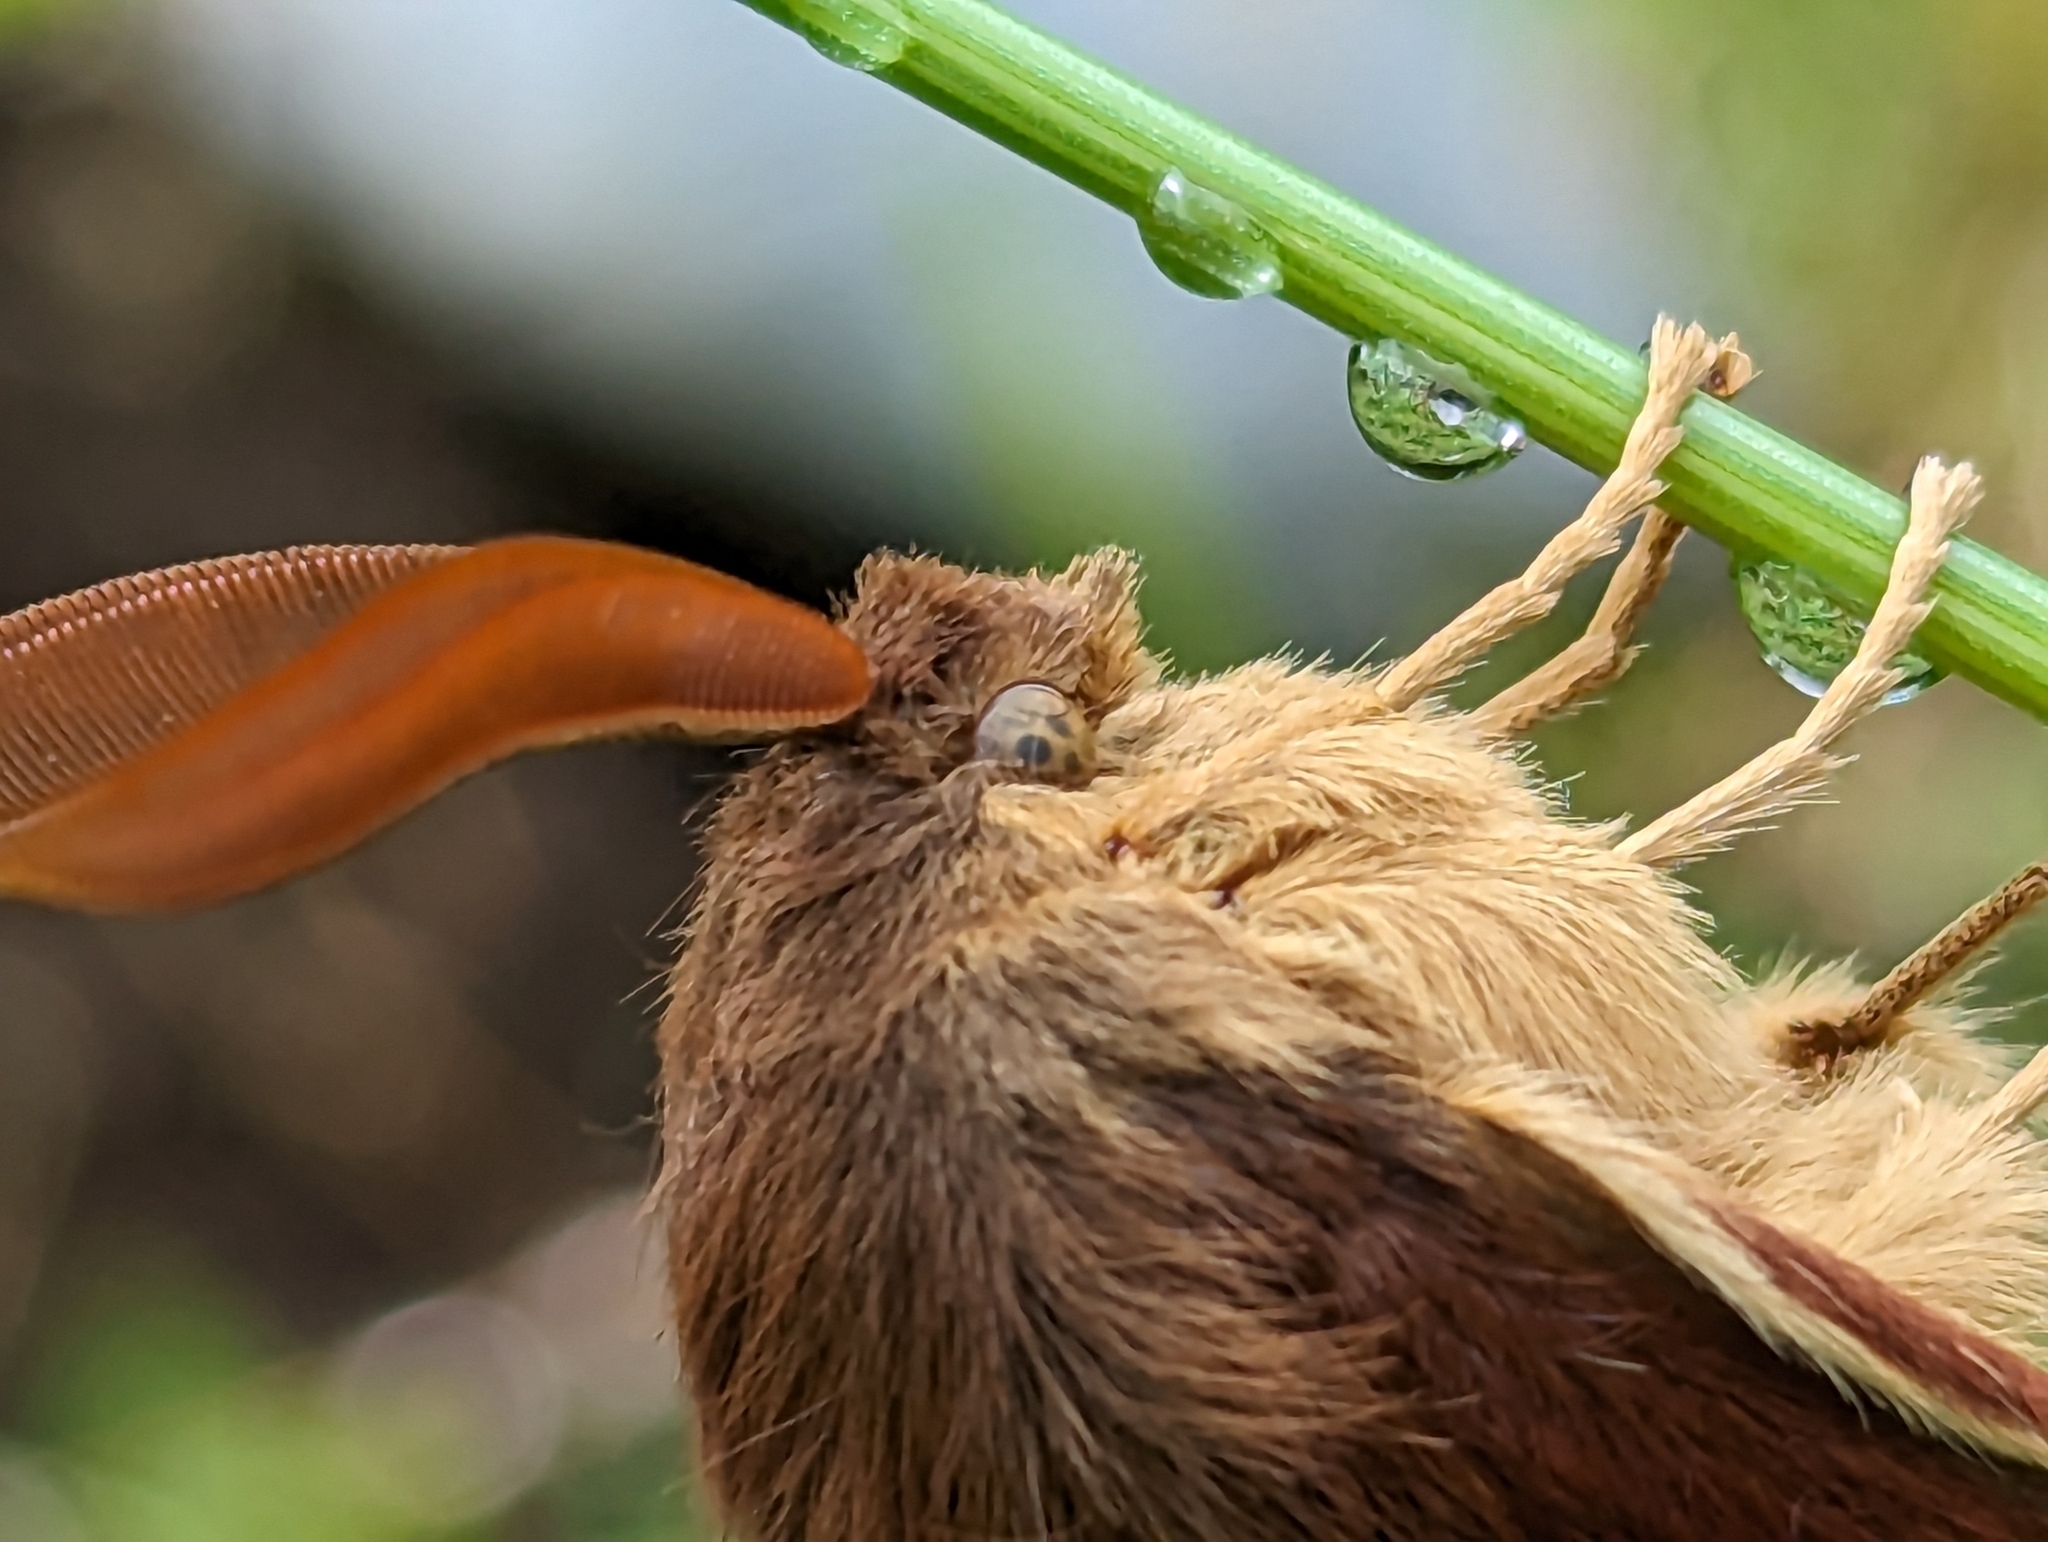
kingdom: Animalia
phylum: Arthropoda
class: Insecta
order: Lepidoptera
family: Lasiocampidae
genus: Lasiocampa
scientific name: Lasiocampa quercus
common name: Oak eggar
